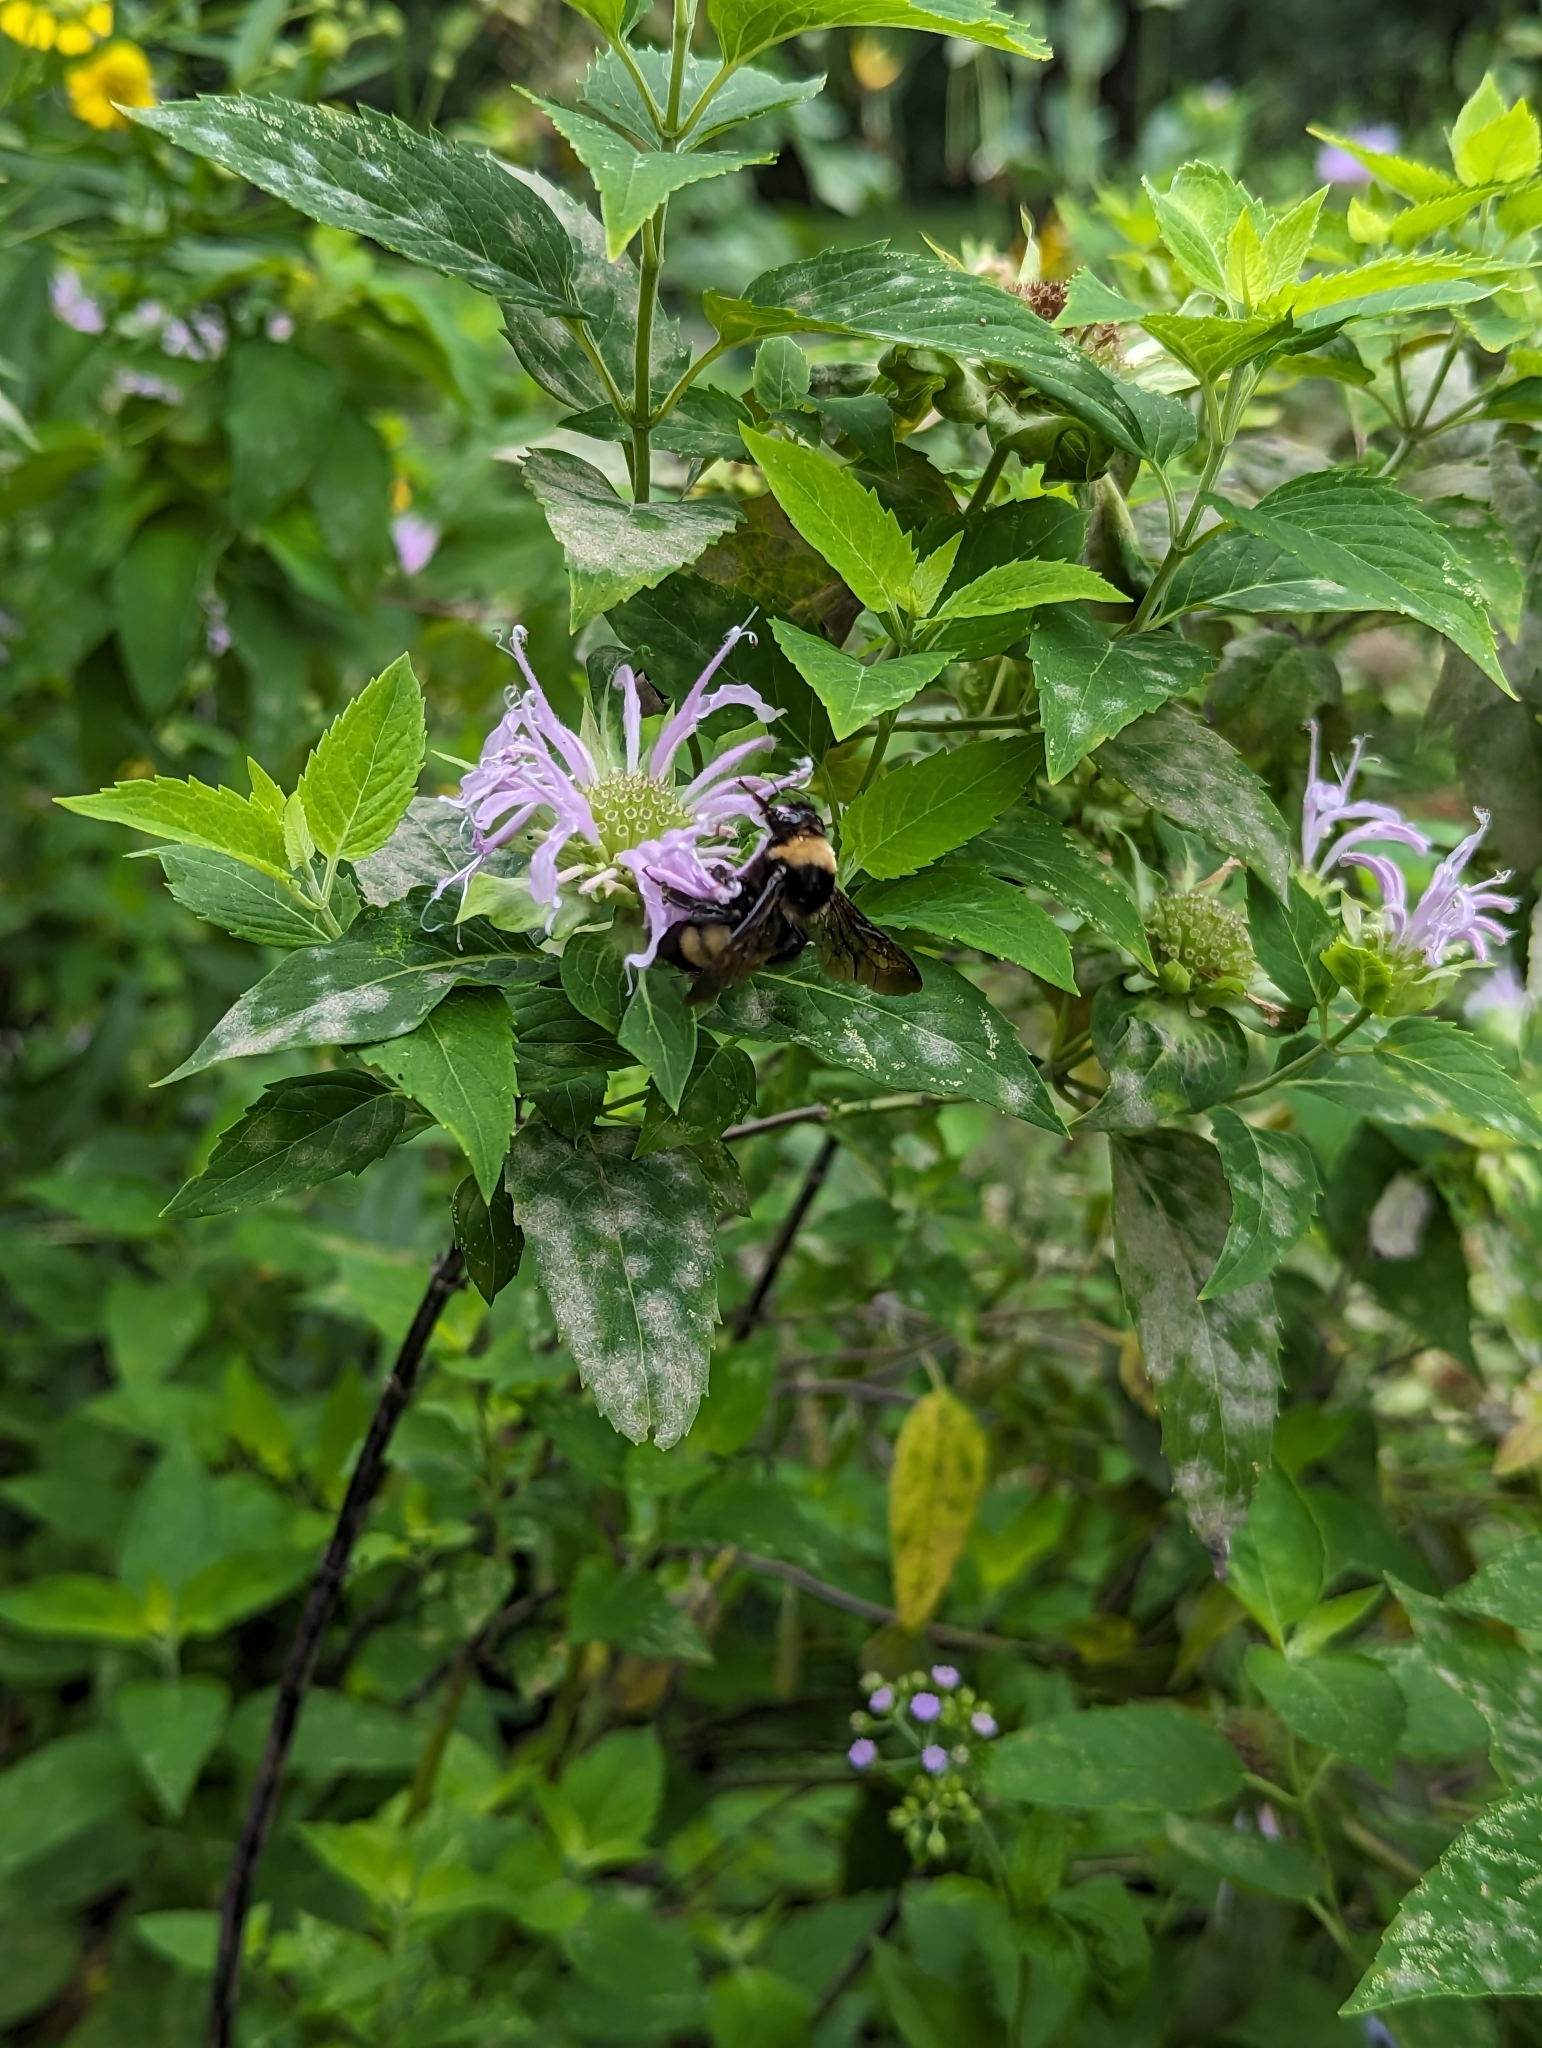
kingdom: Animalia
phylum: Arthropoda
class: Insecta
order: Hymenoptera
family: Apidae
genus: Bombus
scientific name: Bombus auricomus
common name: Black and gold bumble bee
